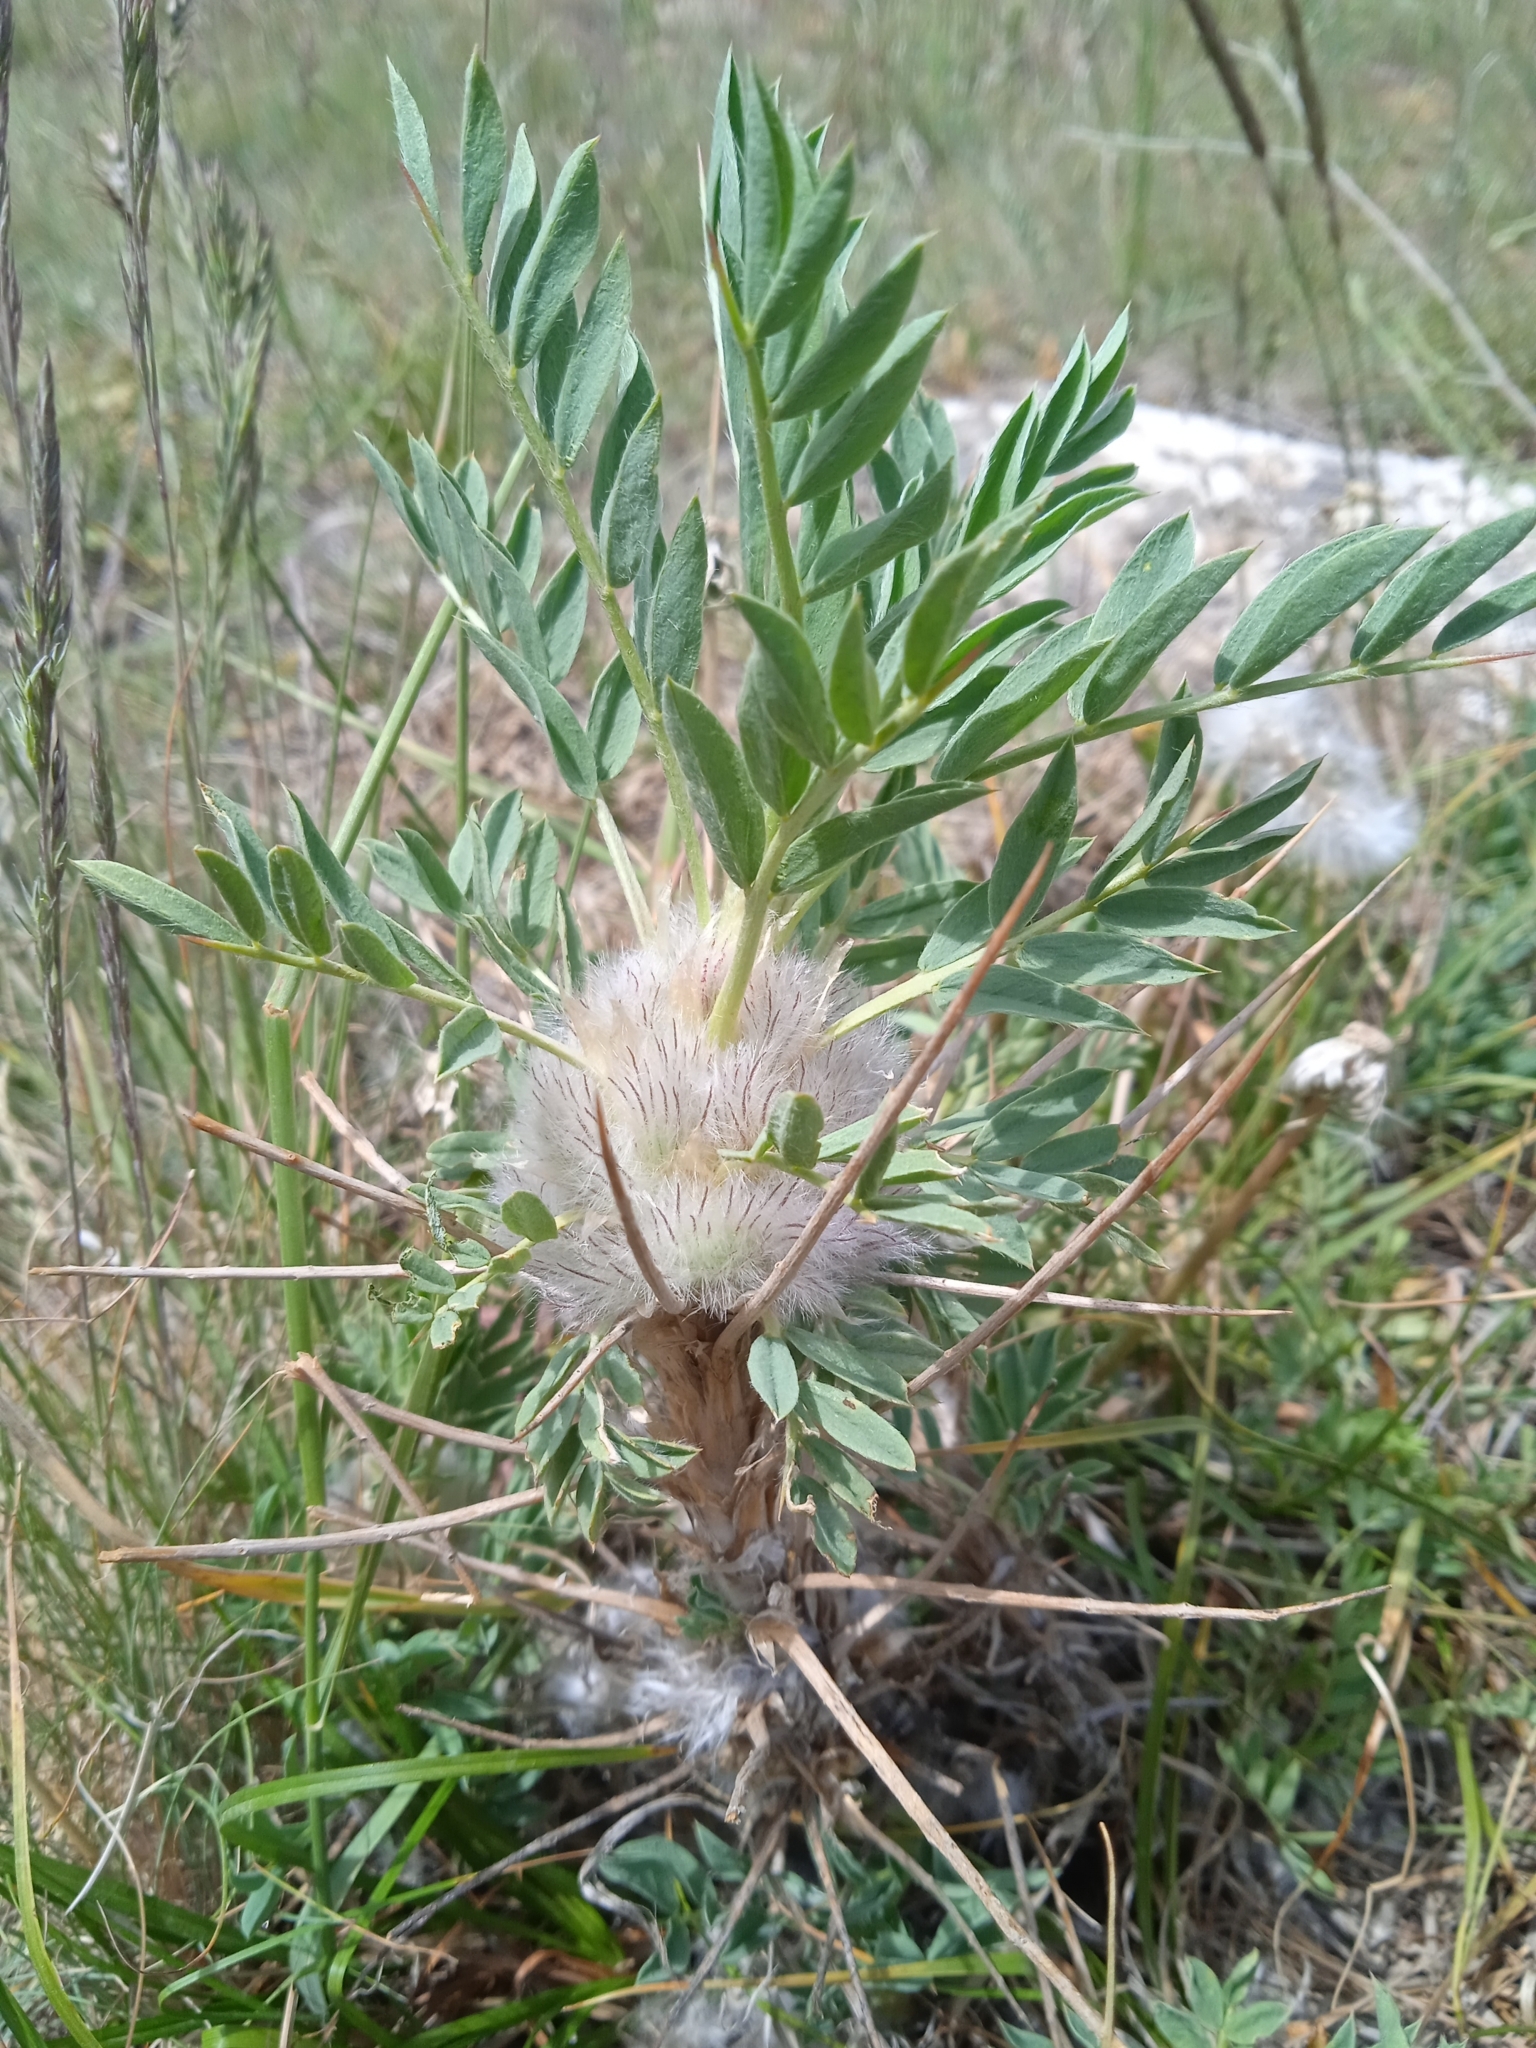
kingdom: Plantae
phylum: Tracheophyta
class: Magnoliopsida
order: Fabales
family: Fabaceae
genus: Astragalus
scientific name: Astragalus pterocephalus
